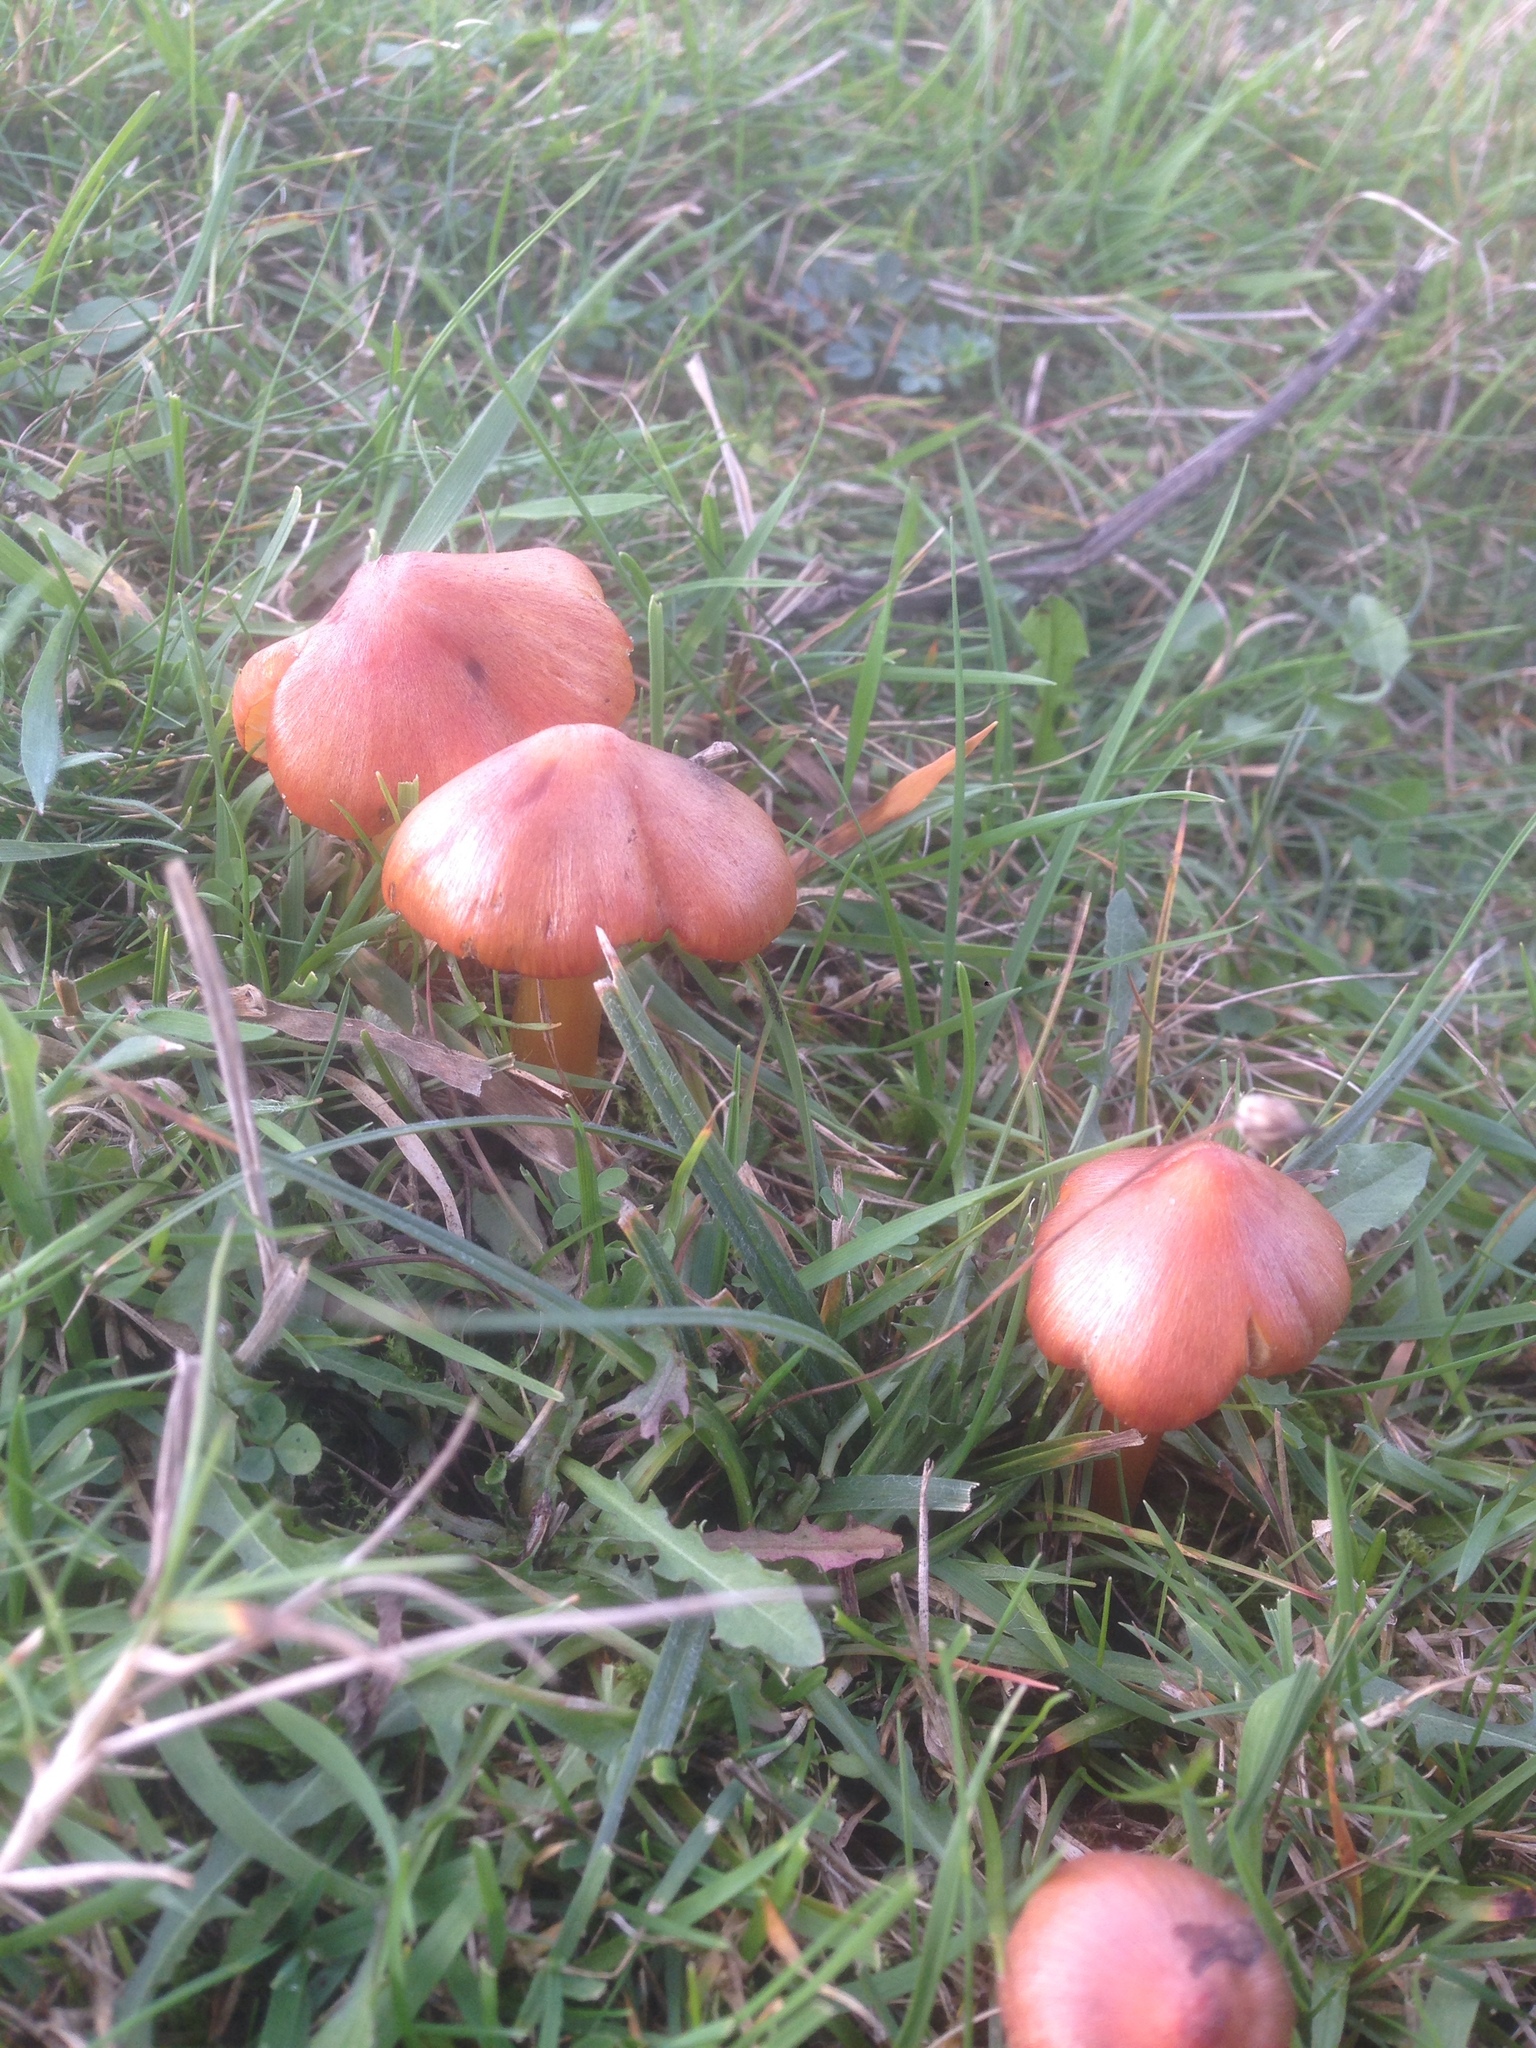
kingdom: Fungi
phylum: Basidiomycota
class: Agaricomycetes
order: Agaricales
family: Hygrophoraceae
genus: Hygrocybe
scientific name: Hygrocybe conica
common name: Blackening wax-cap
